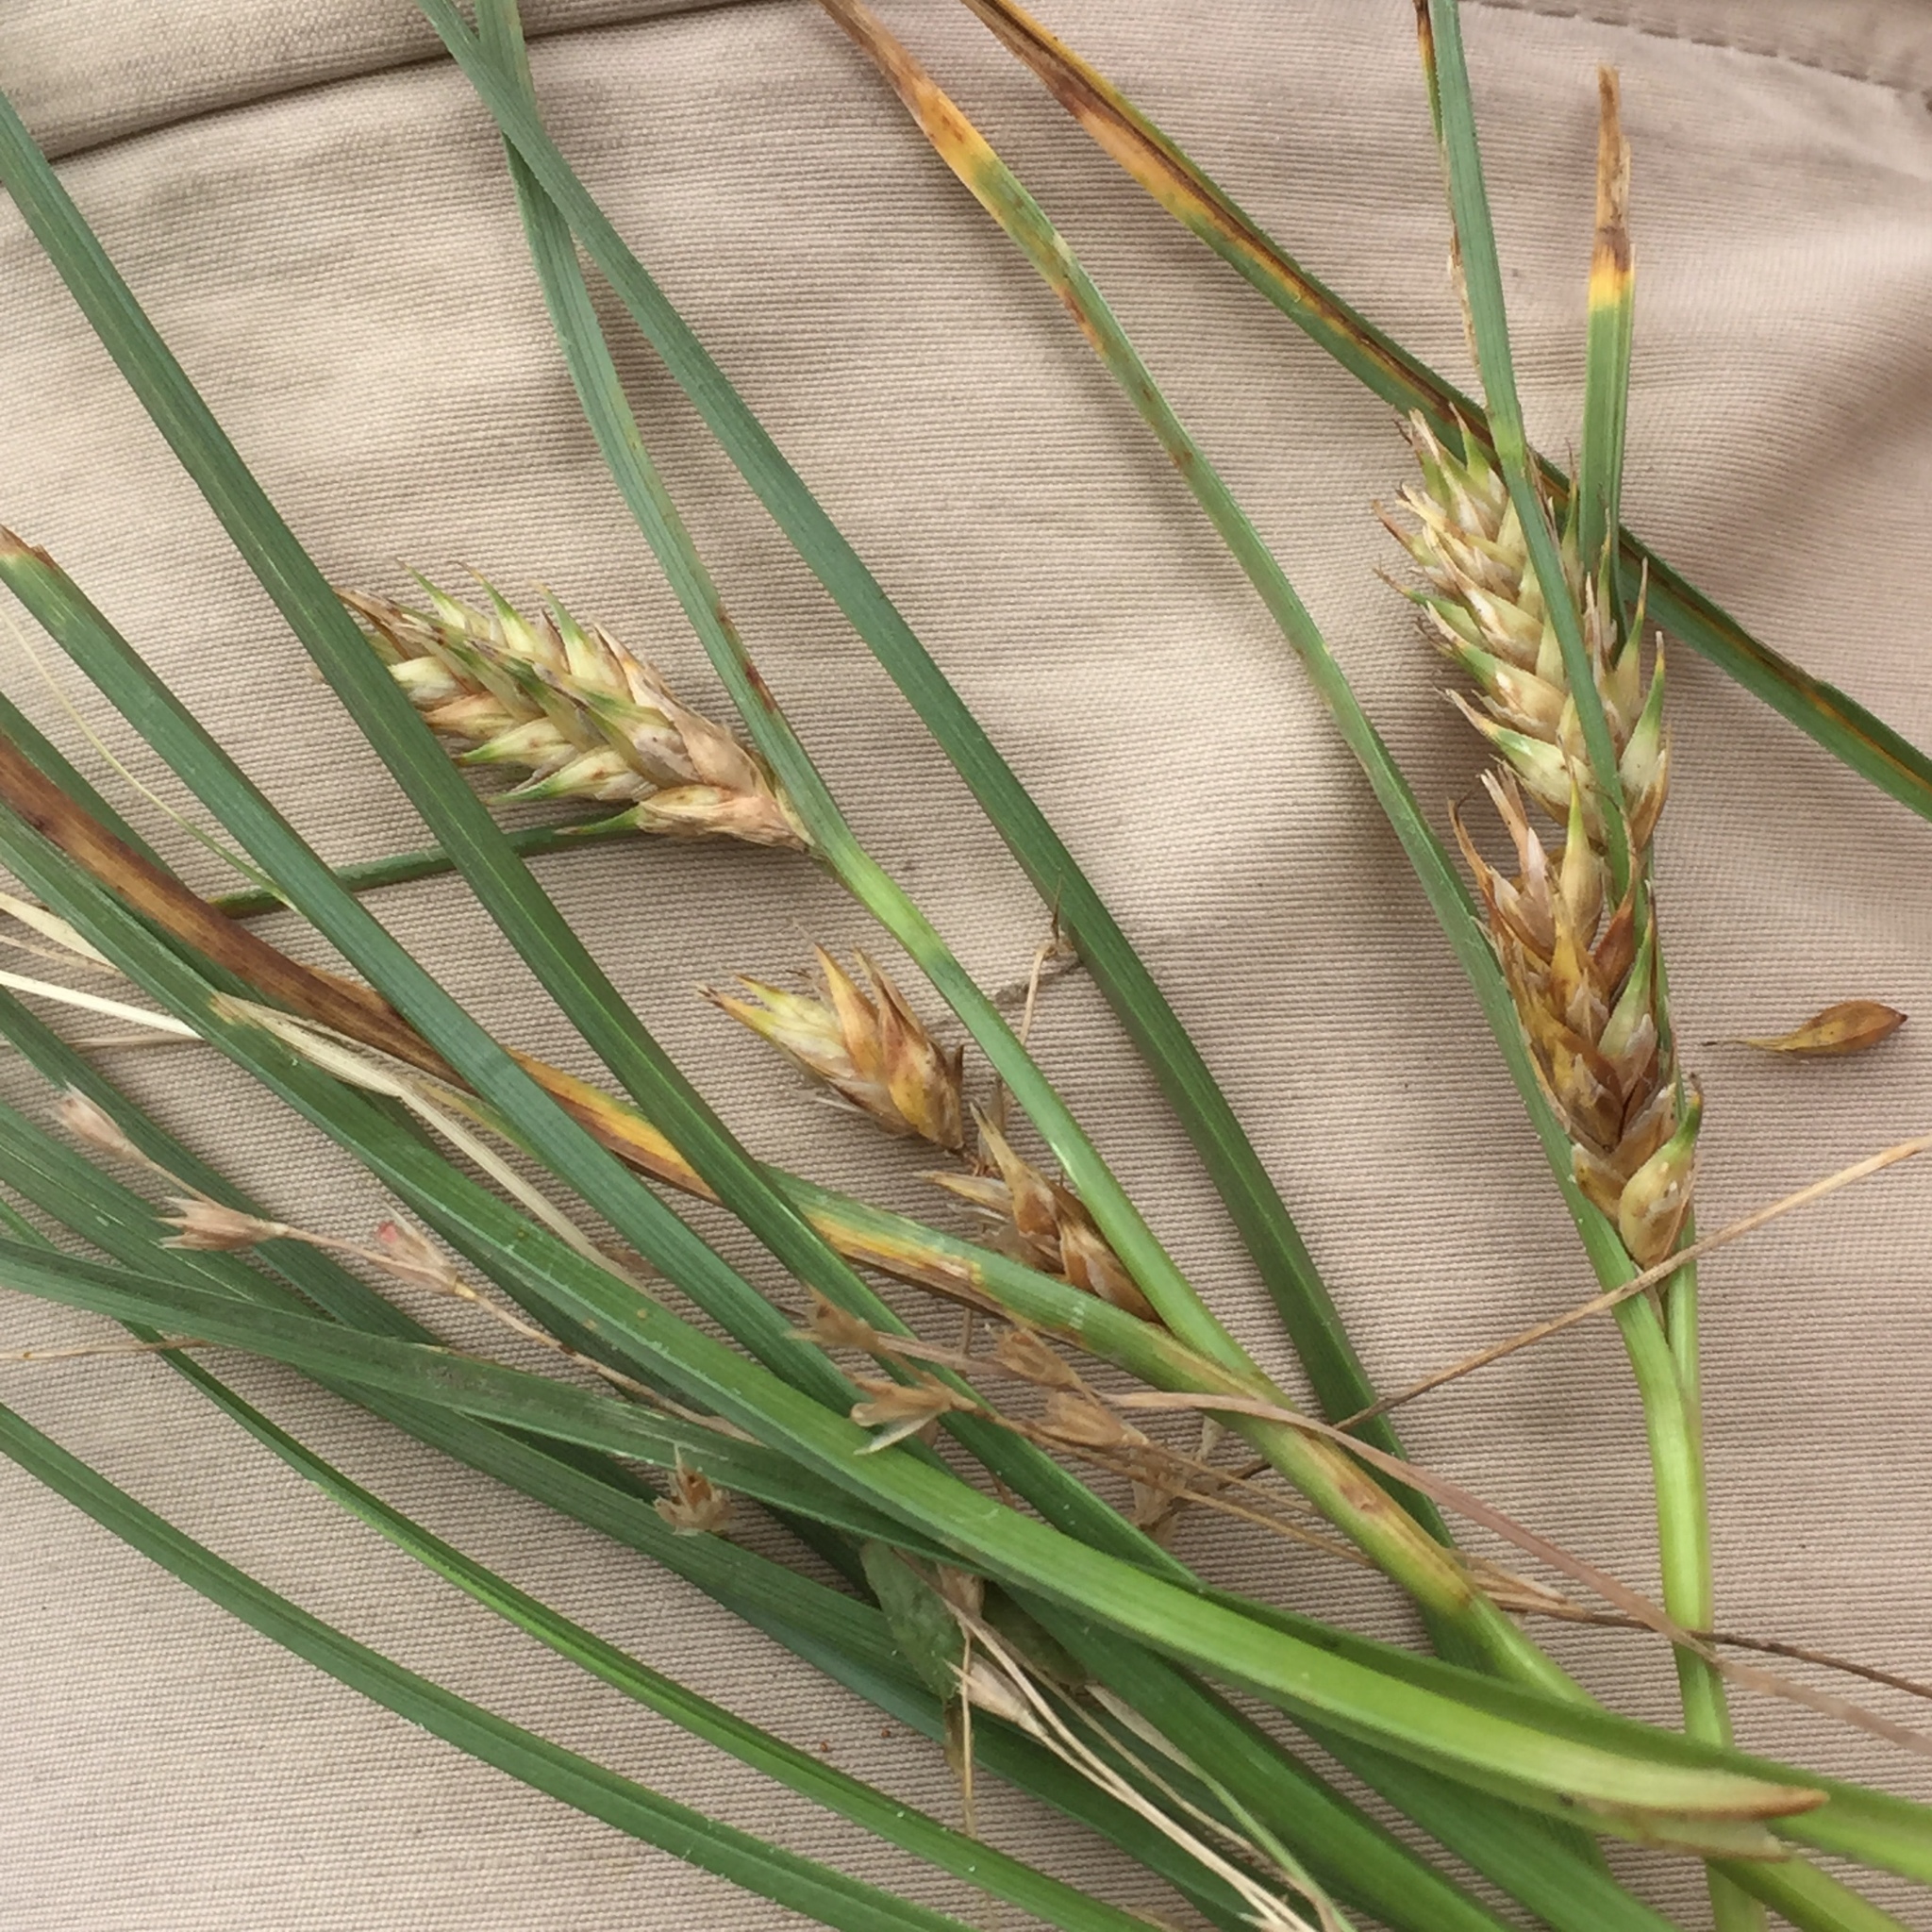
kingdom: Plantae
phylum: Tracheophyta
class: Liliopsida
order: Poales
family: Cyperaceae
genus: Carex
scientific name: Carex hordeistichos
